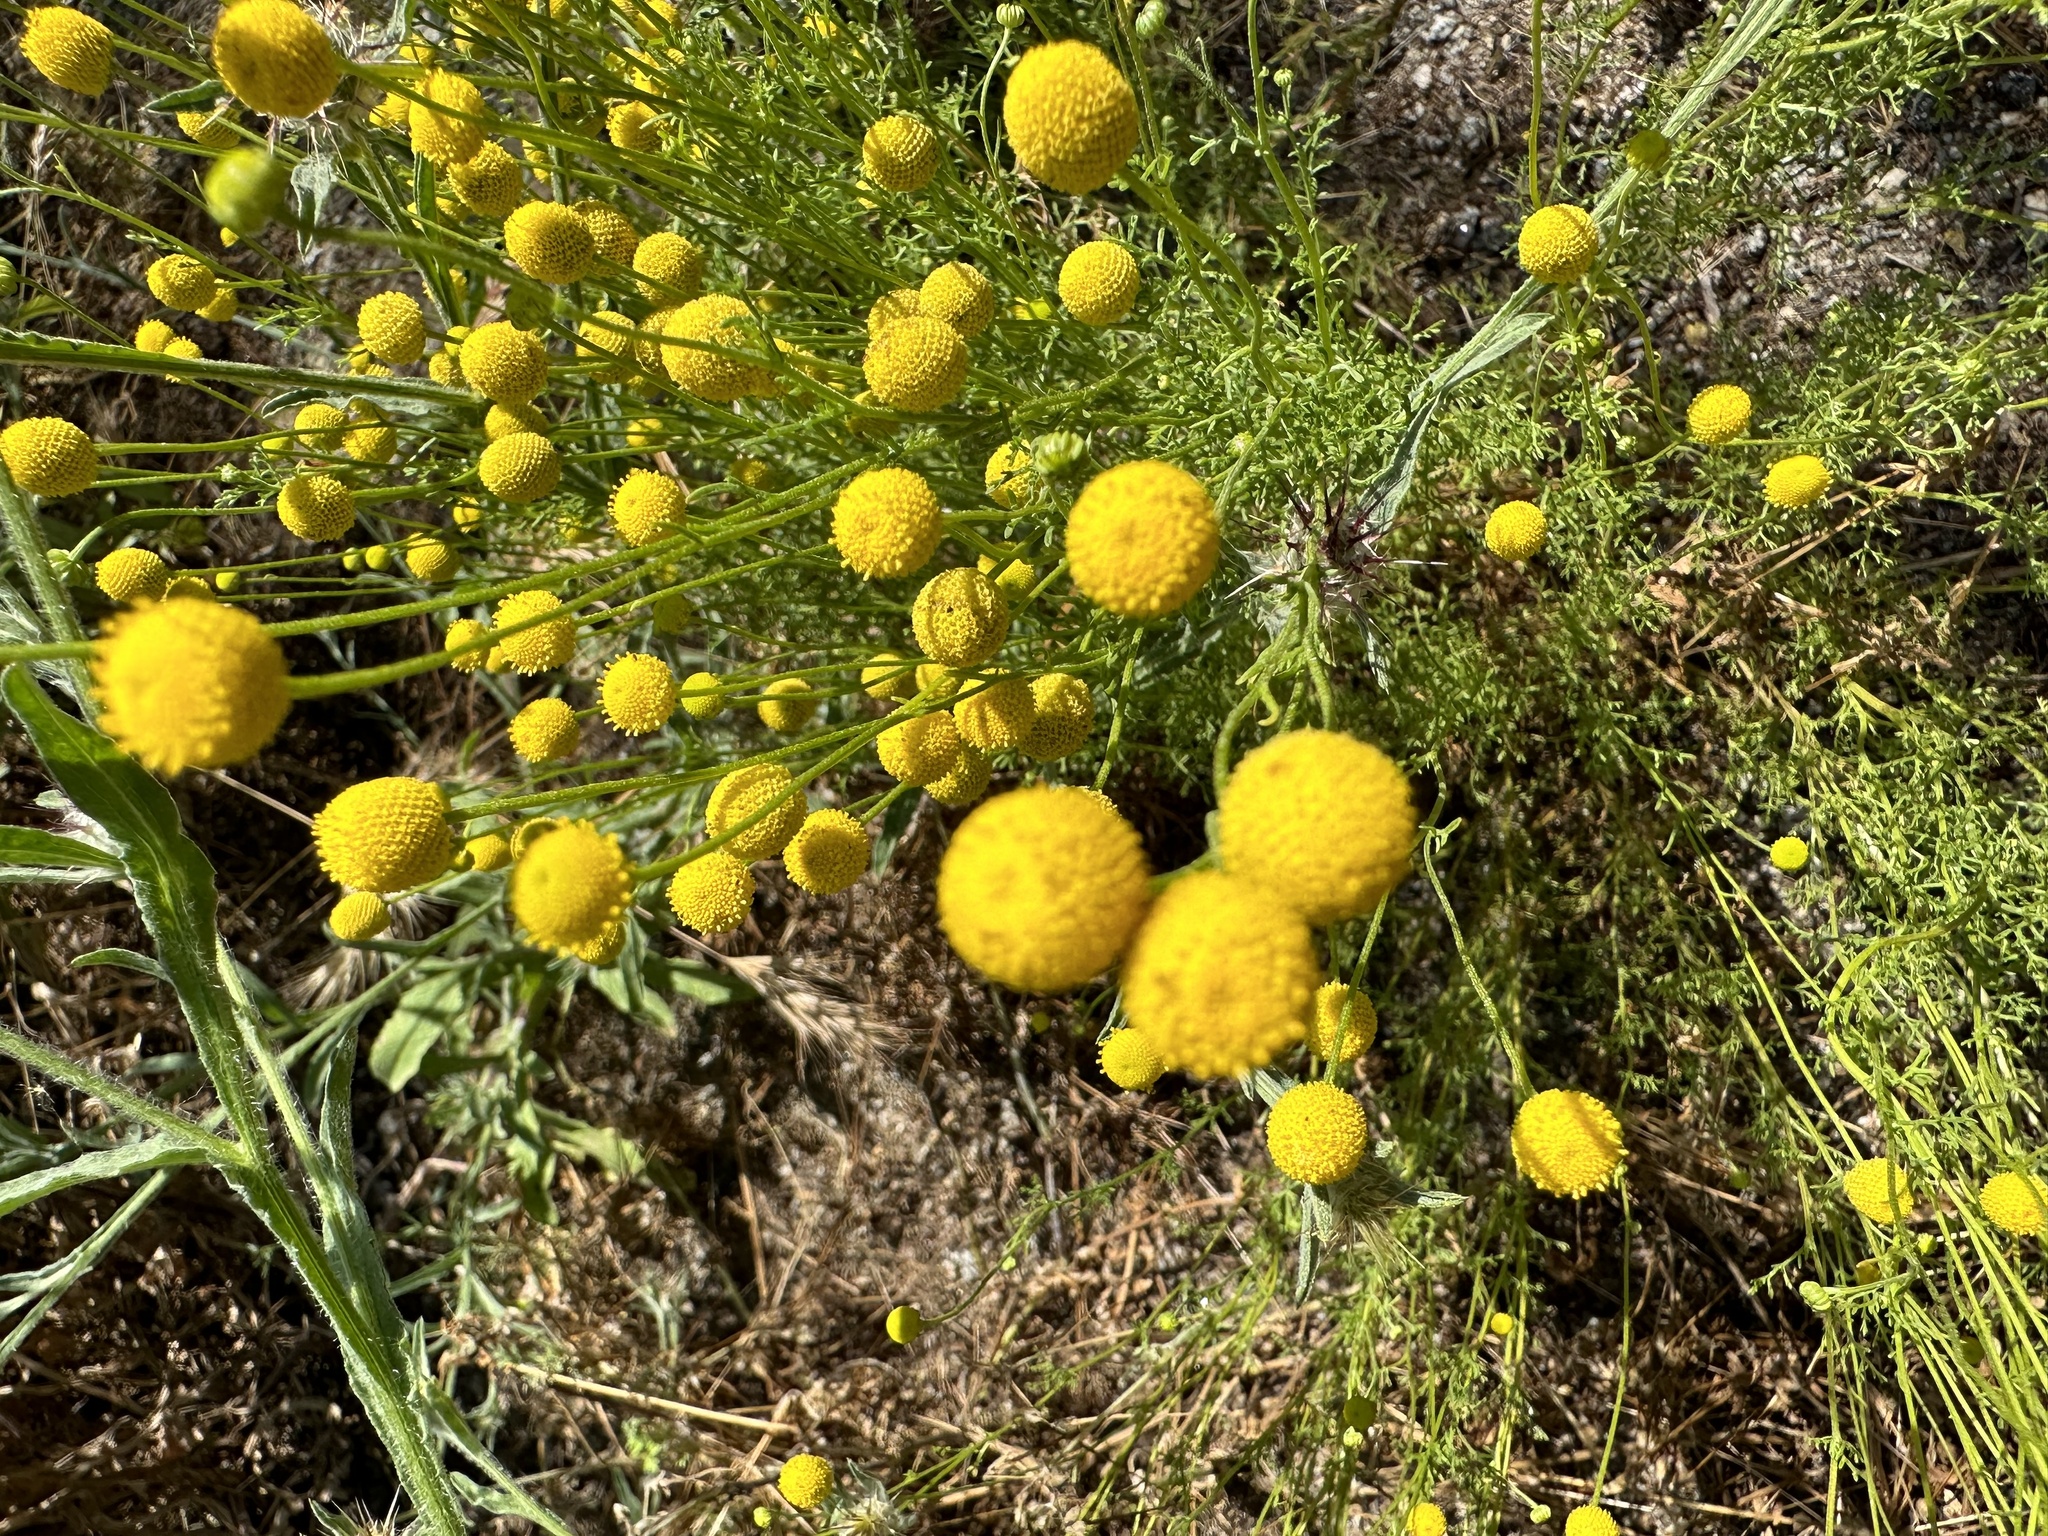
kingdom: Plantae
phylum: Tracheophyta
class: Magnoliopsida
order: Asterales
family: Asteraceae
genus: Oncosiphon
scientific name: Oncosiphon pilulifer
